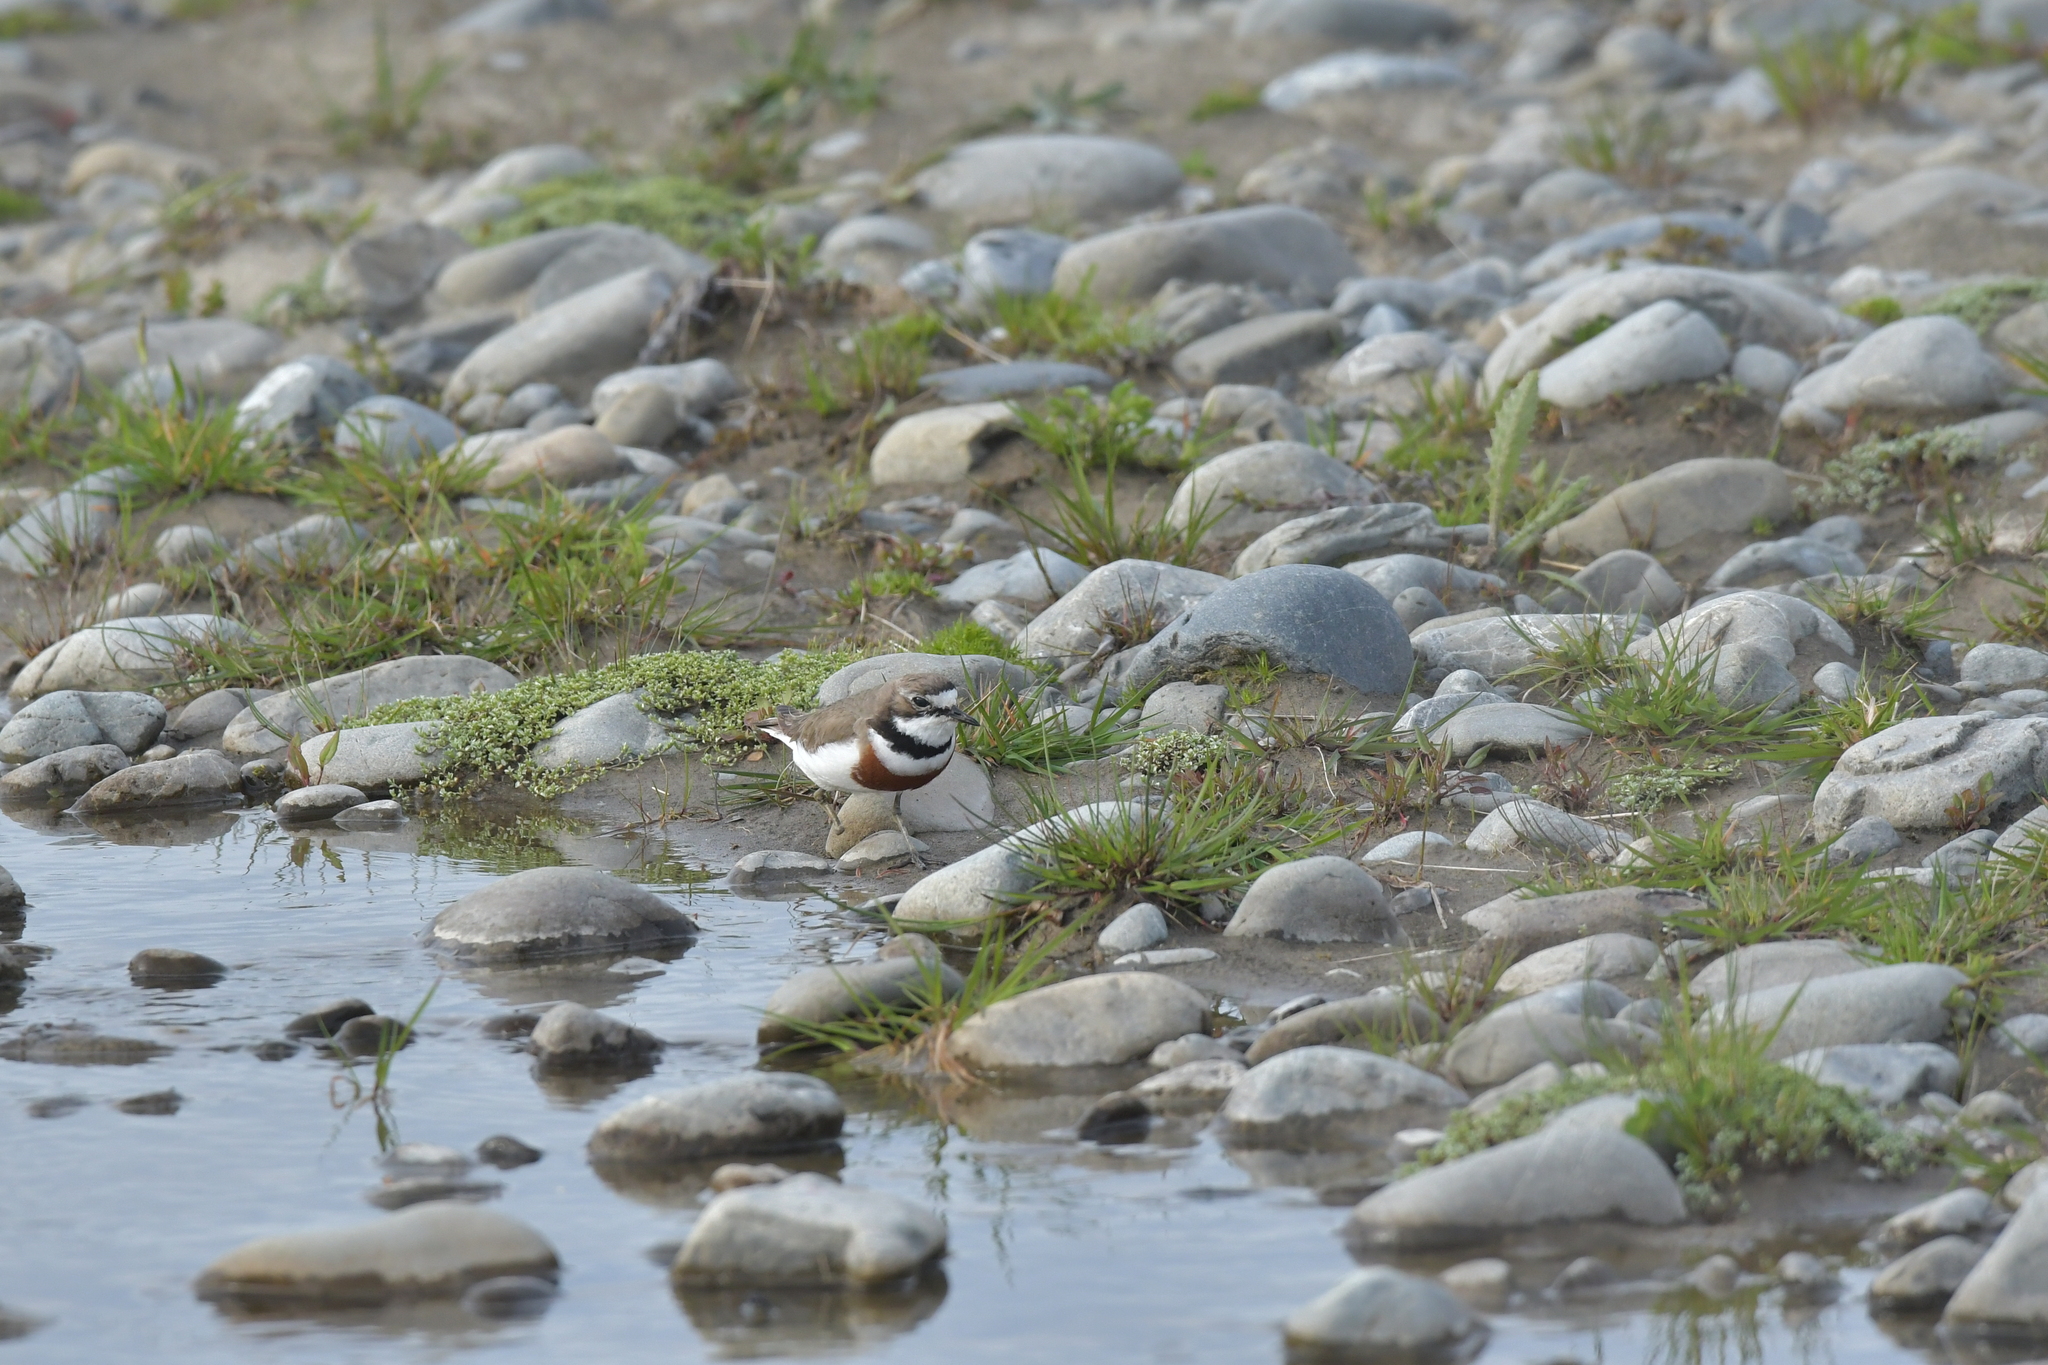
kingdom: Animalia
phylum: Chordata
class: Aves
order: Charadriiformes
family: Charadriidae
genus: Anarhynchus
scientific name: Anarhynchus
